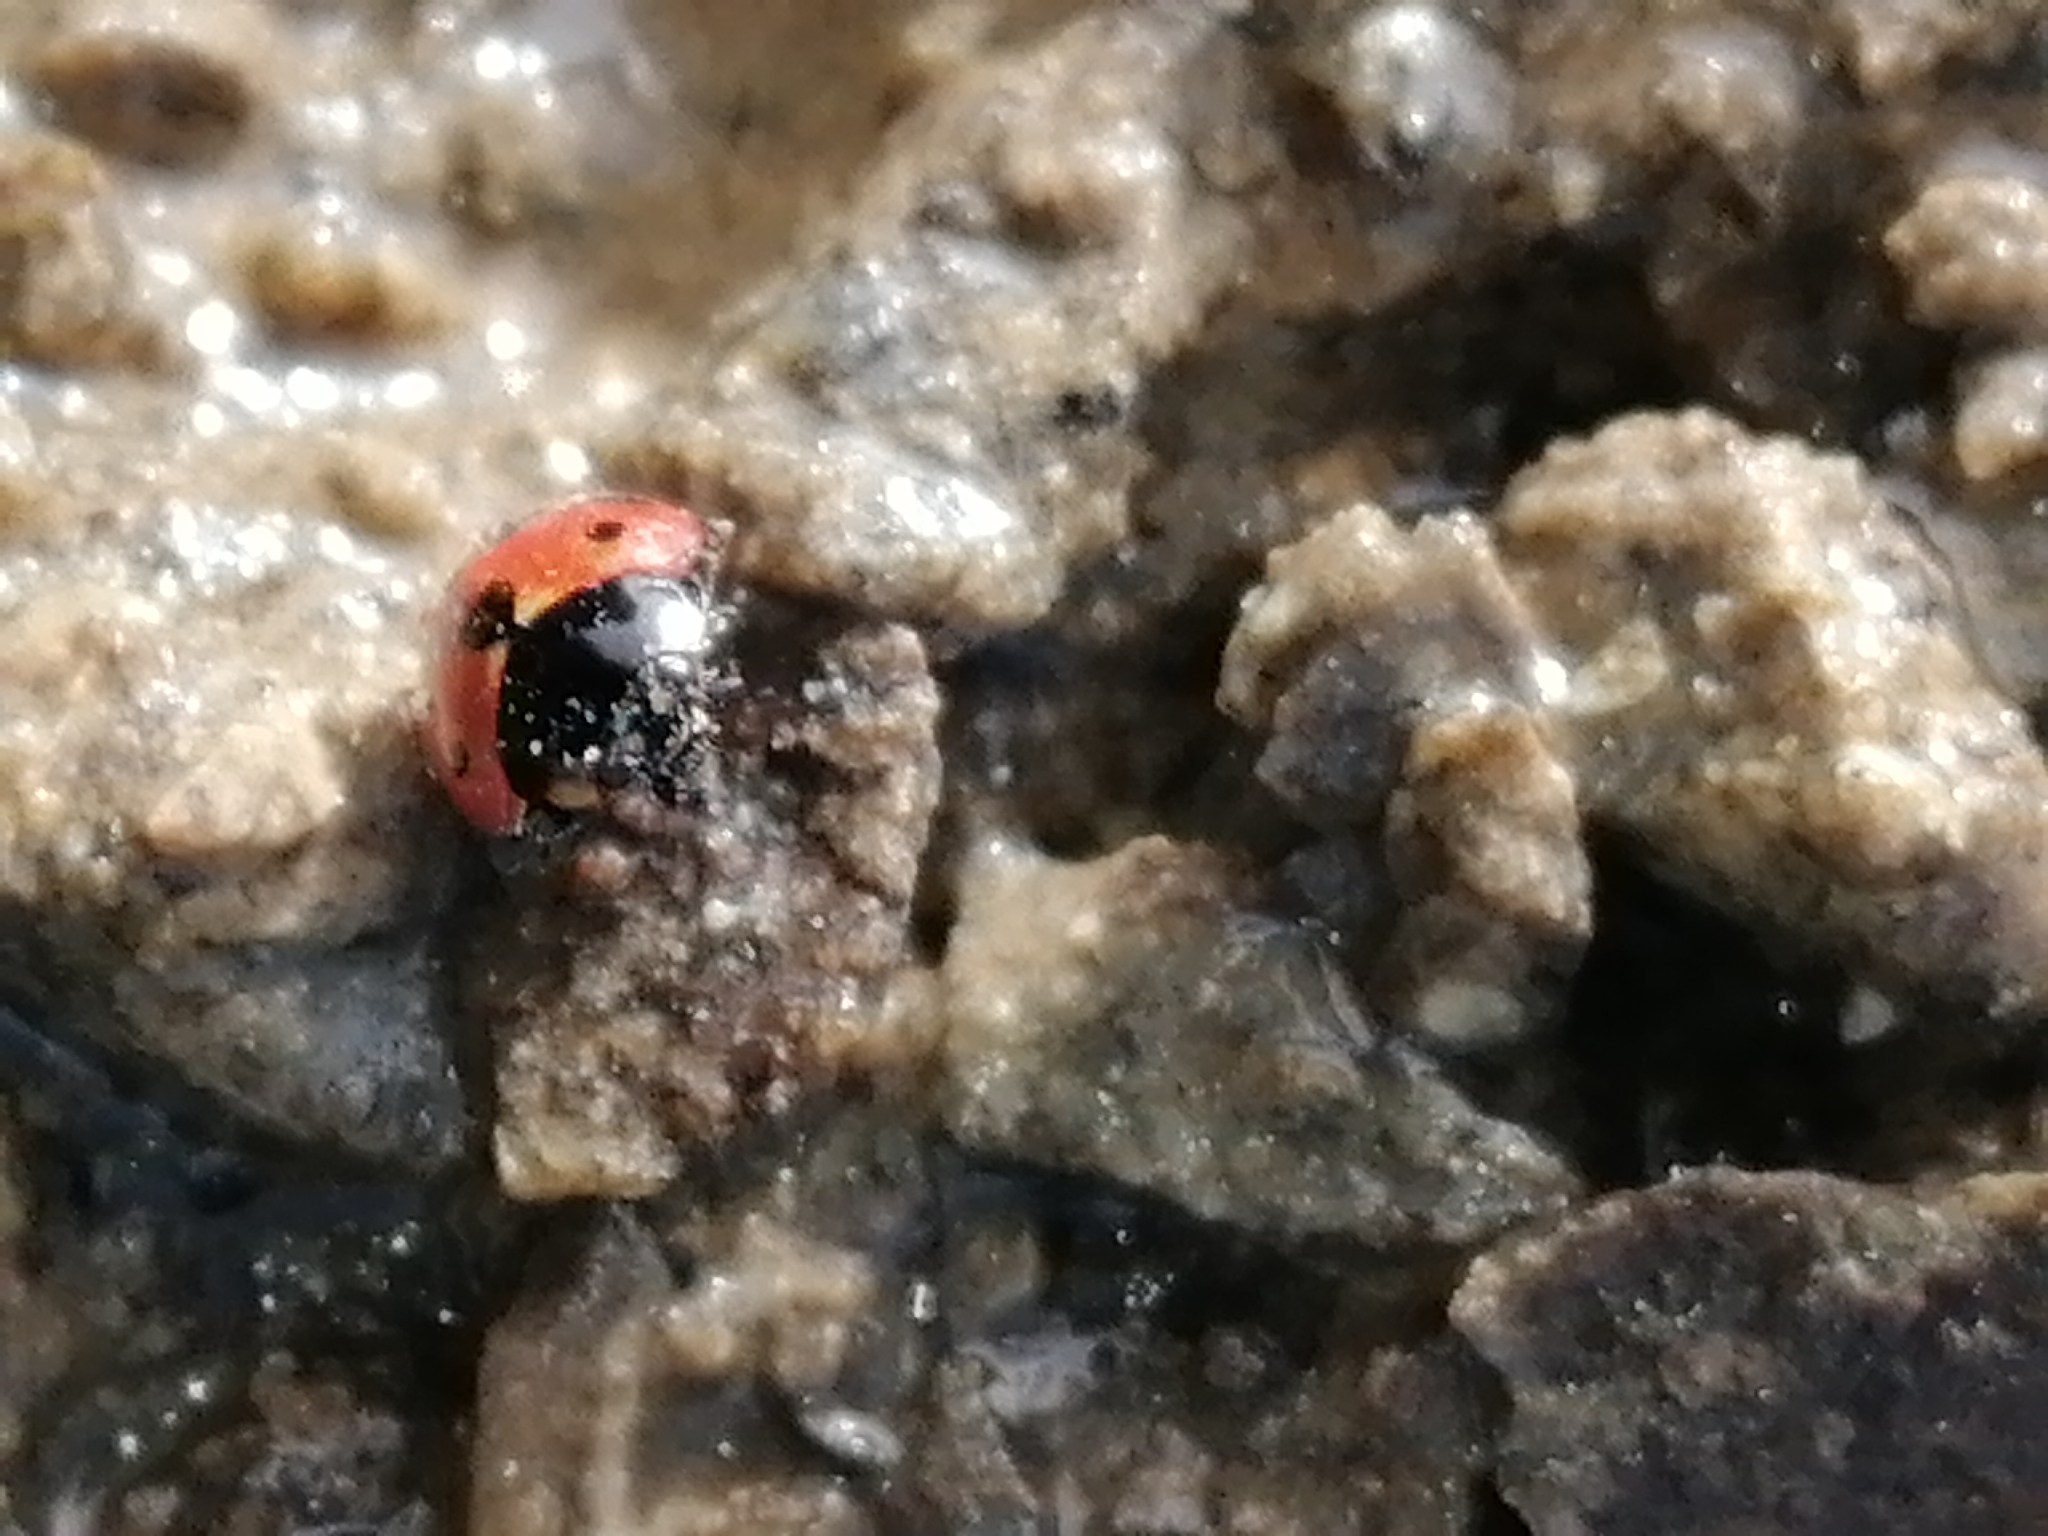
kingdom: Animalia
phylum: Arthropoda
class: Insecta
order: Coleoptera
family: Coccinellidae
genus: Coccinella
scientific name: Coccinella undecimpunctata
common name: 11-spot ladybird
